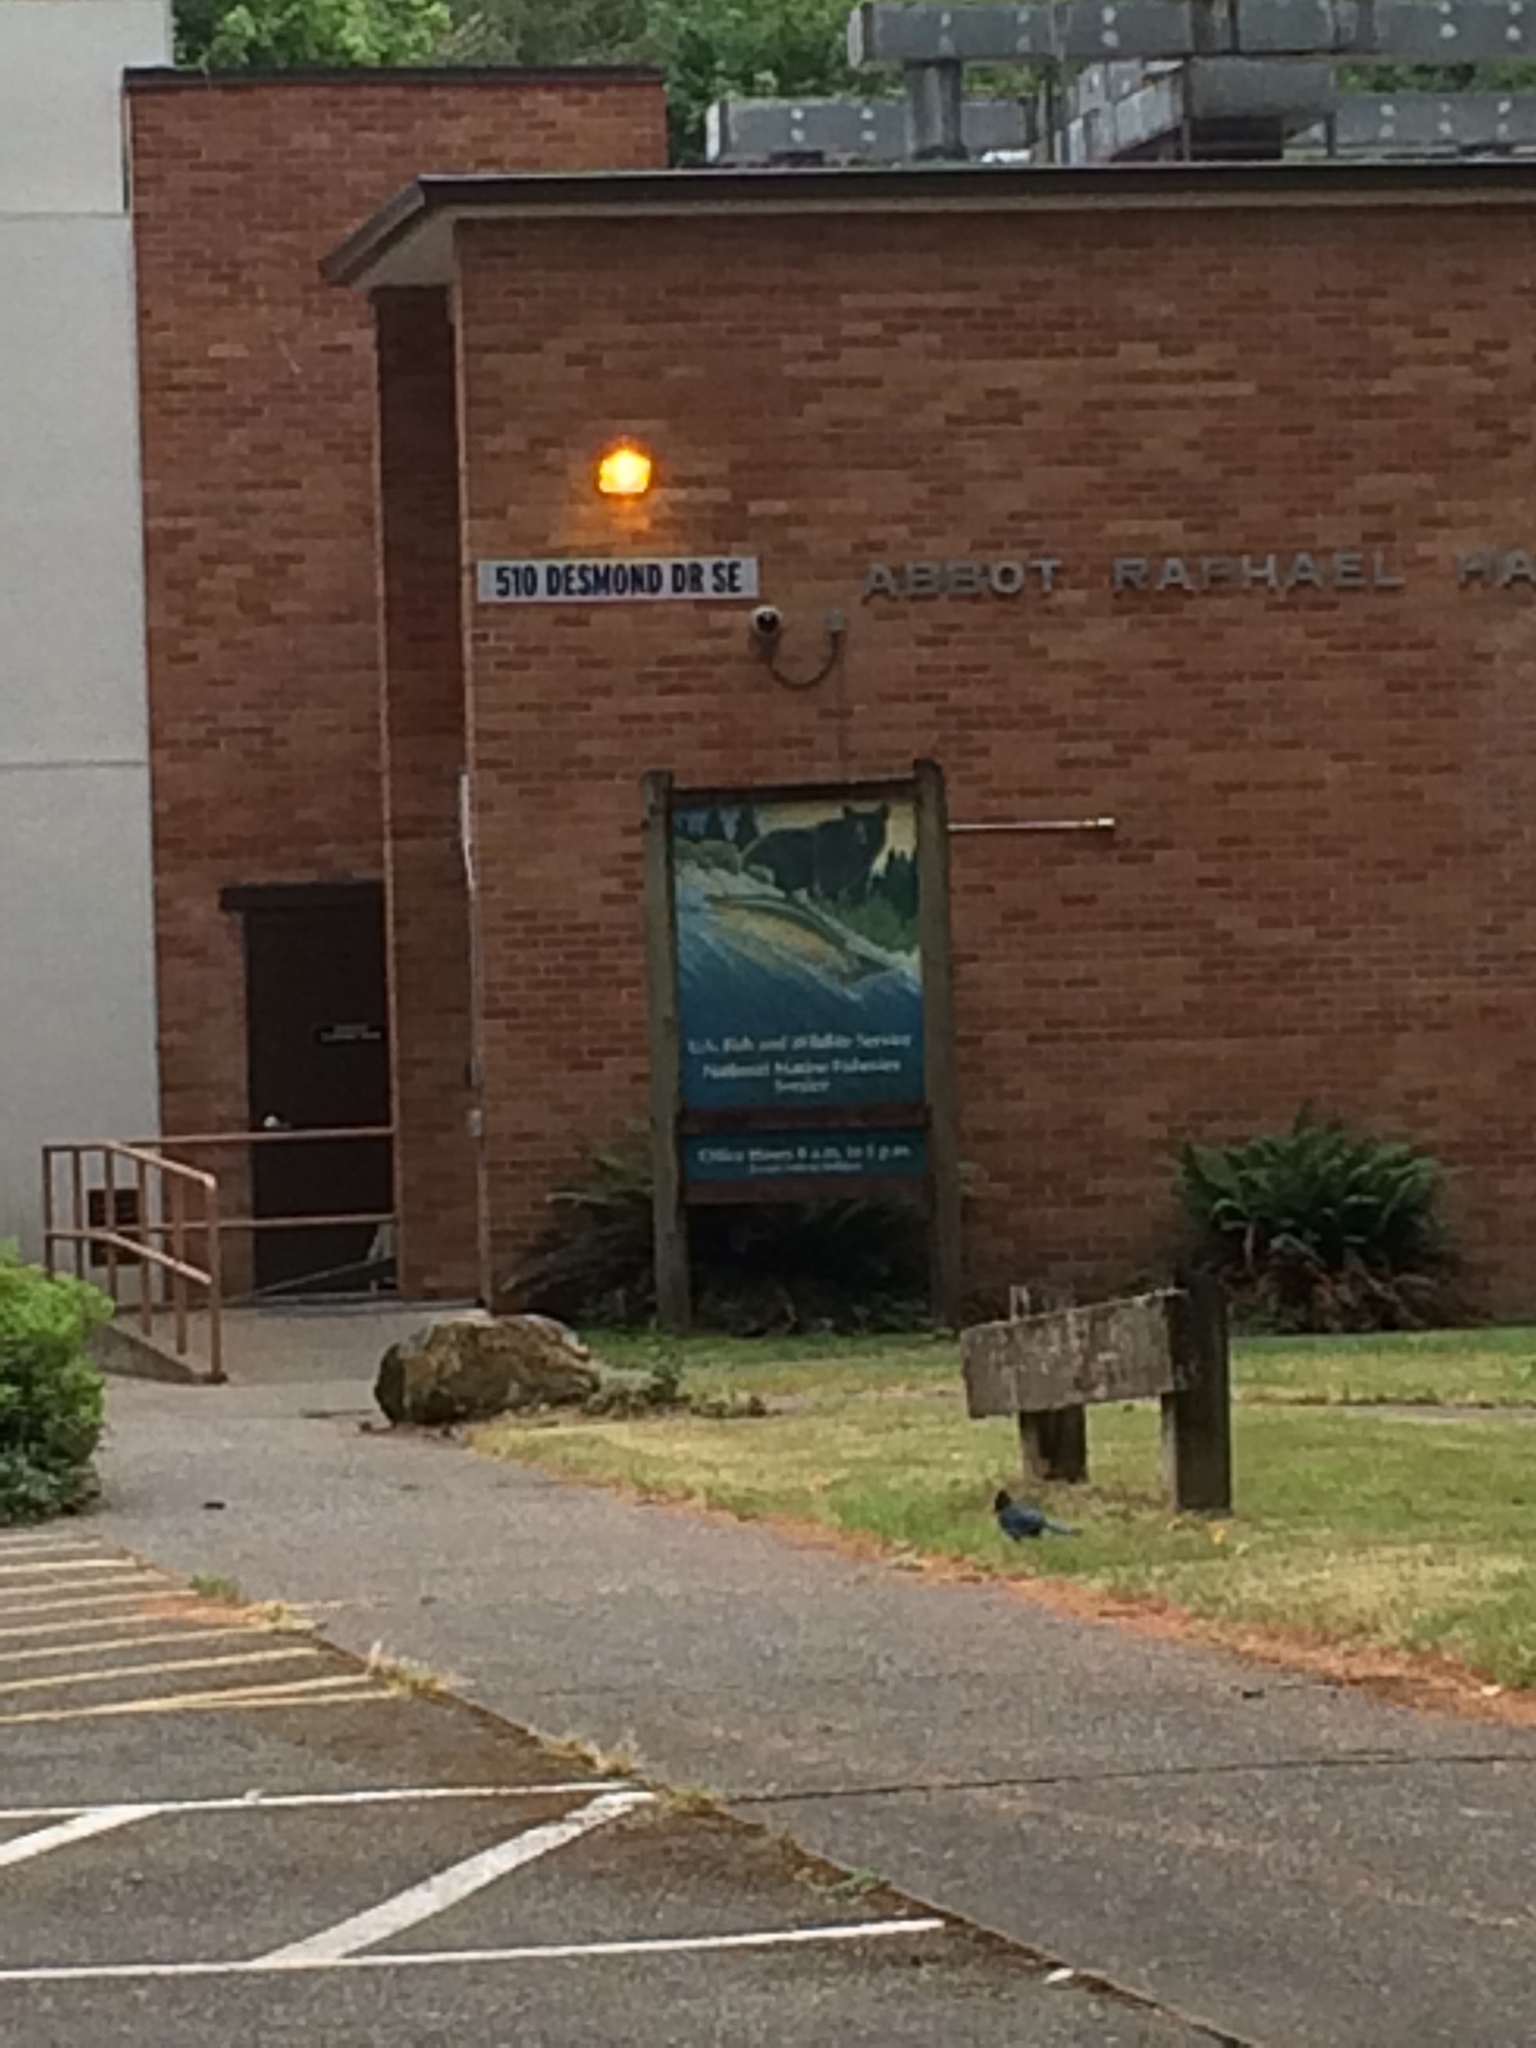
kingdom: Animalia
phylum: Chordata
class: Aves
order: Passeriformes
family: Corvidae
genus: Cyanocitta
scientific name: Cyanocitta stelleri
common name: Steller's jay
